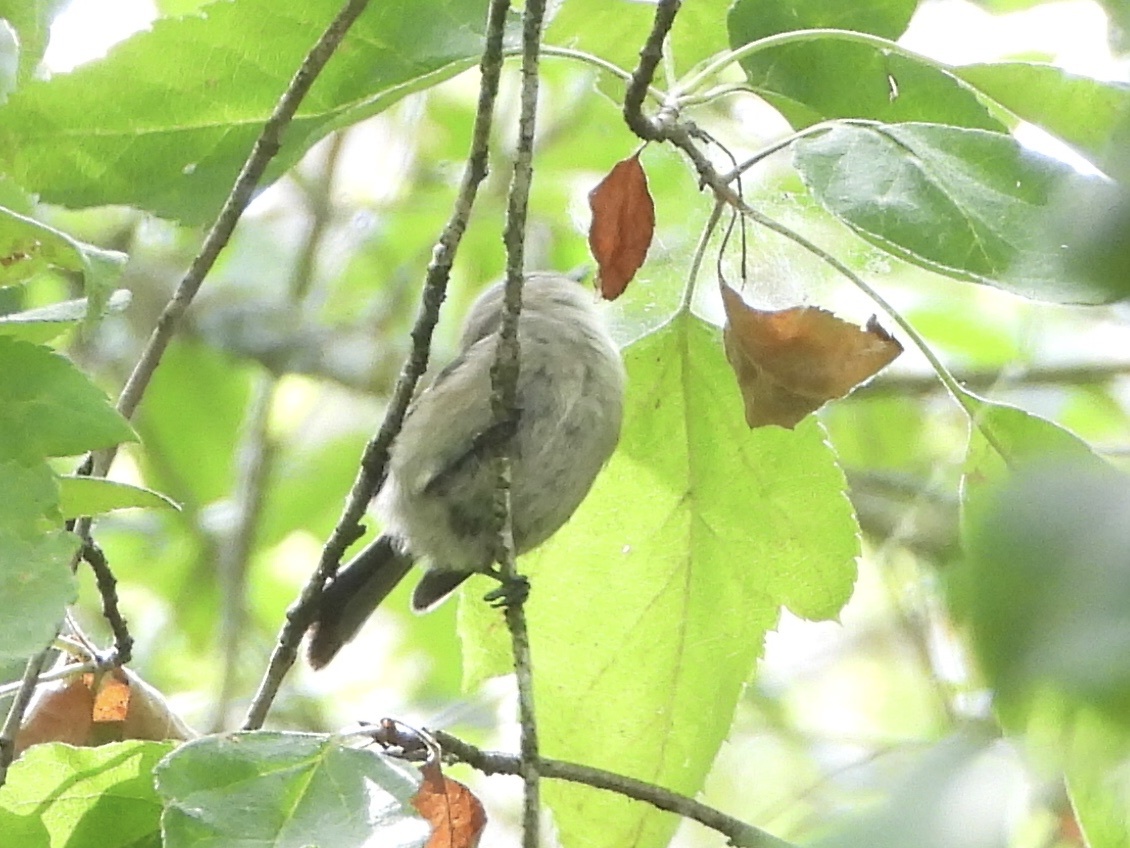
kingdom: Animalia
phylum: Chordata
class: Aves
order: Passeriformes
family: Aegithalidae
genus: Psaltriparus
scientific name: Psaltriparus minimus
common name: American bushtit
